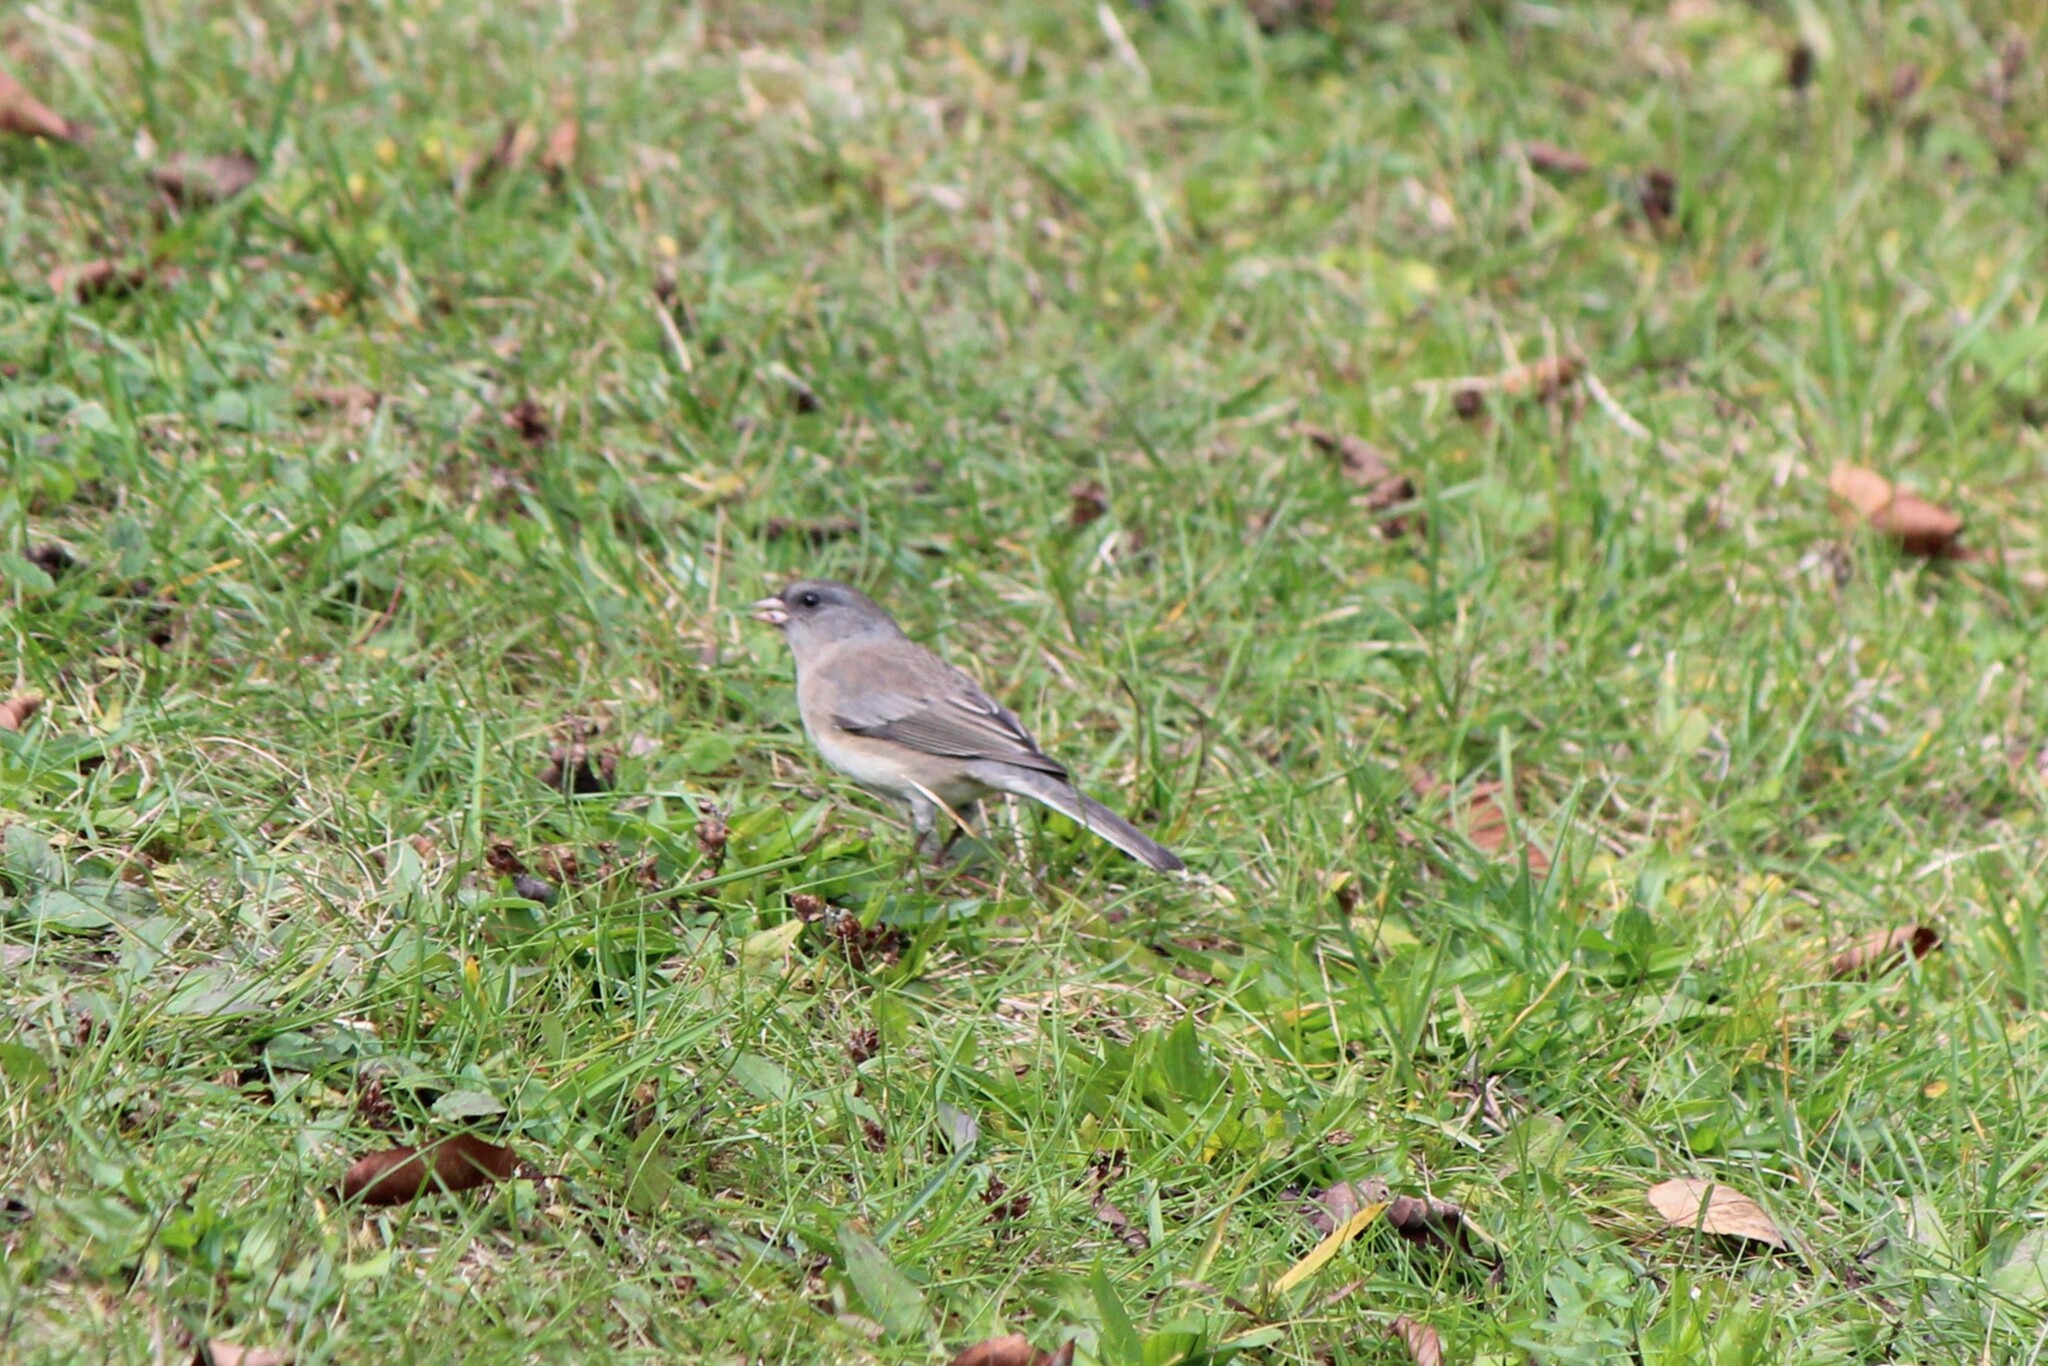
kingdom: Animalia
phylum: Chordata
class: Aves
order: Passeriformes
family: Passerellidae
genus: Junco
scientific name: Junco hyemalis
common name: Dark-eyed junco
